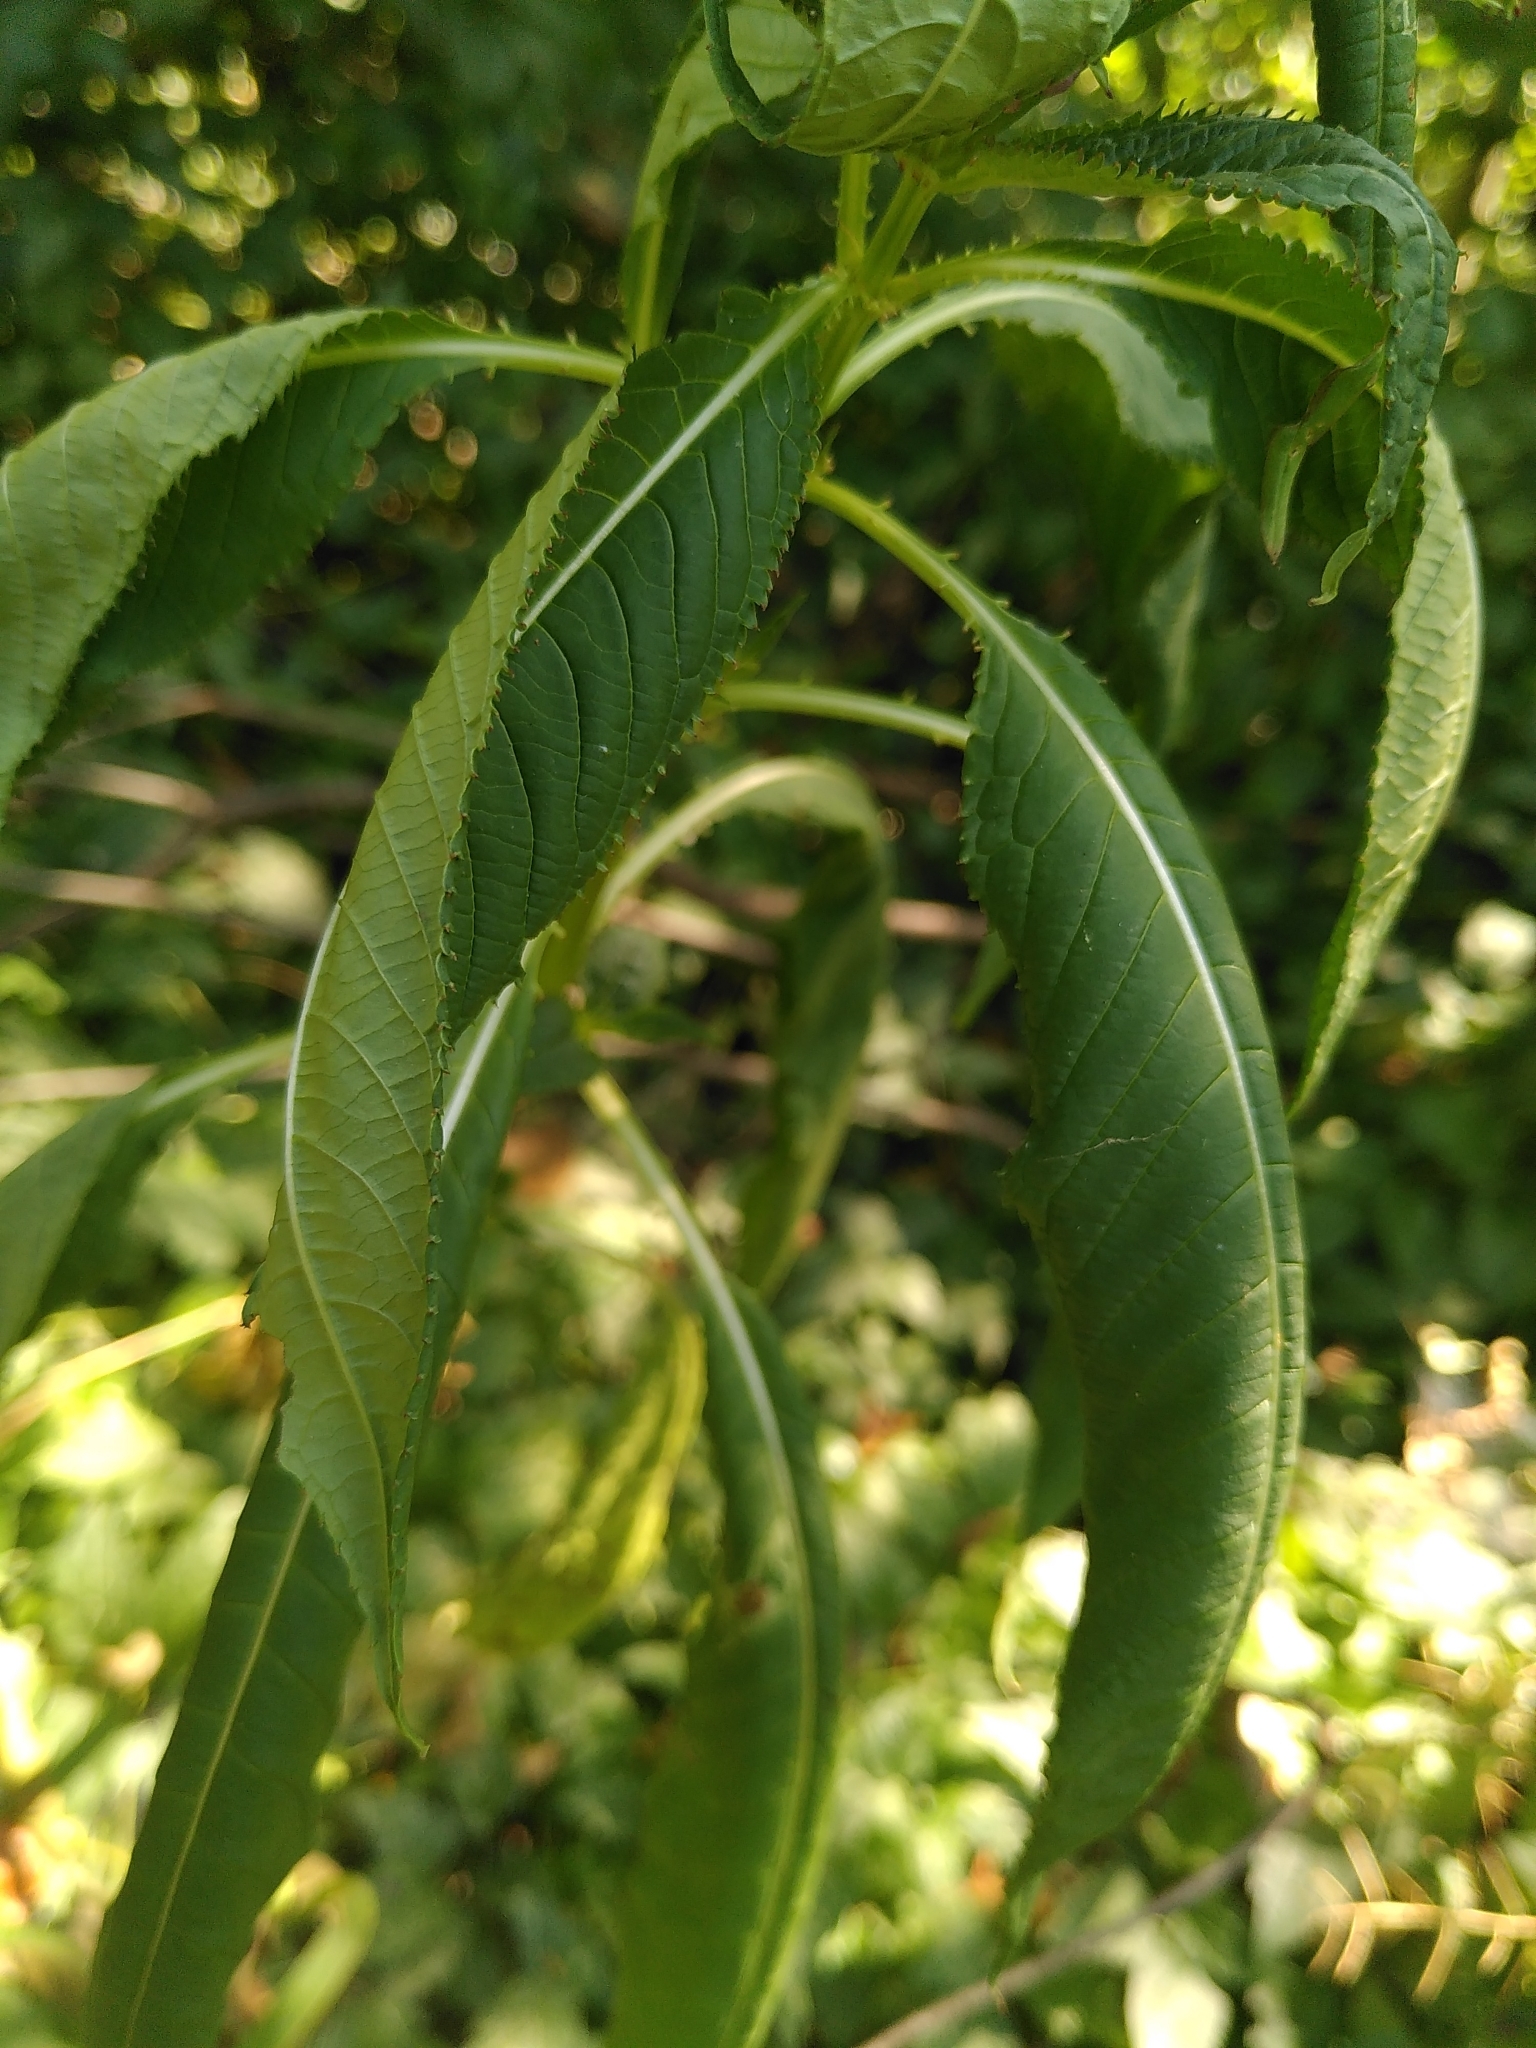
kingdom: Plantae
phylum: Tracheophyta
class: Magnoliopsida
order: Ericales
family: Balsaminaceae
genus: Impatiens
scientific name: Impatiens glandulifera
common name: Himalayan balsam
